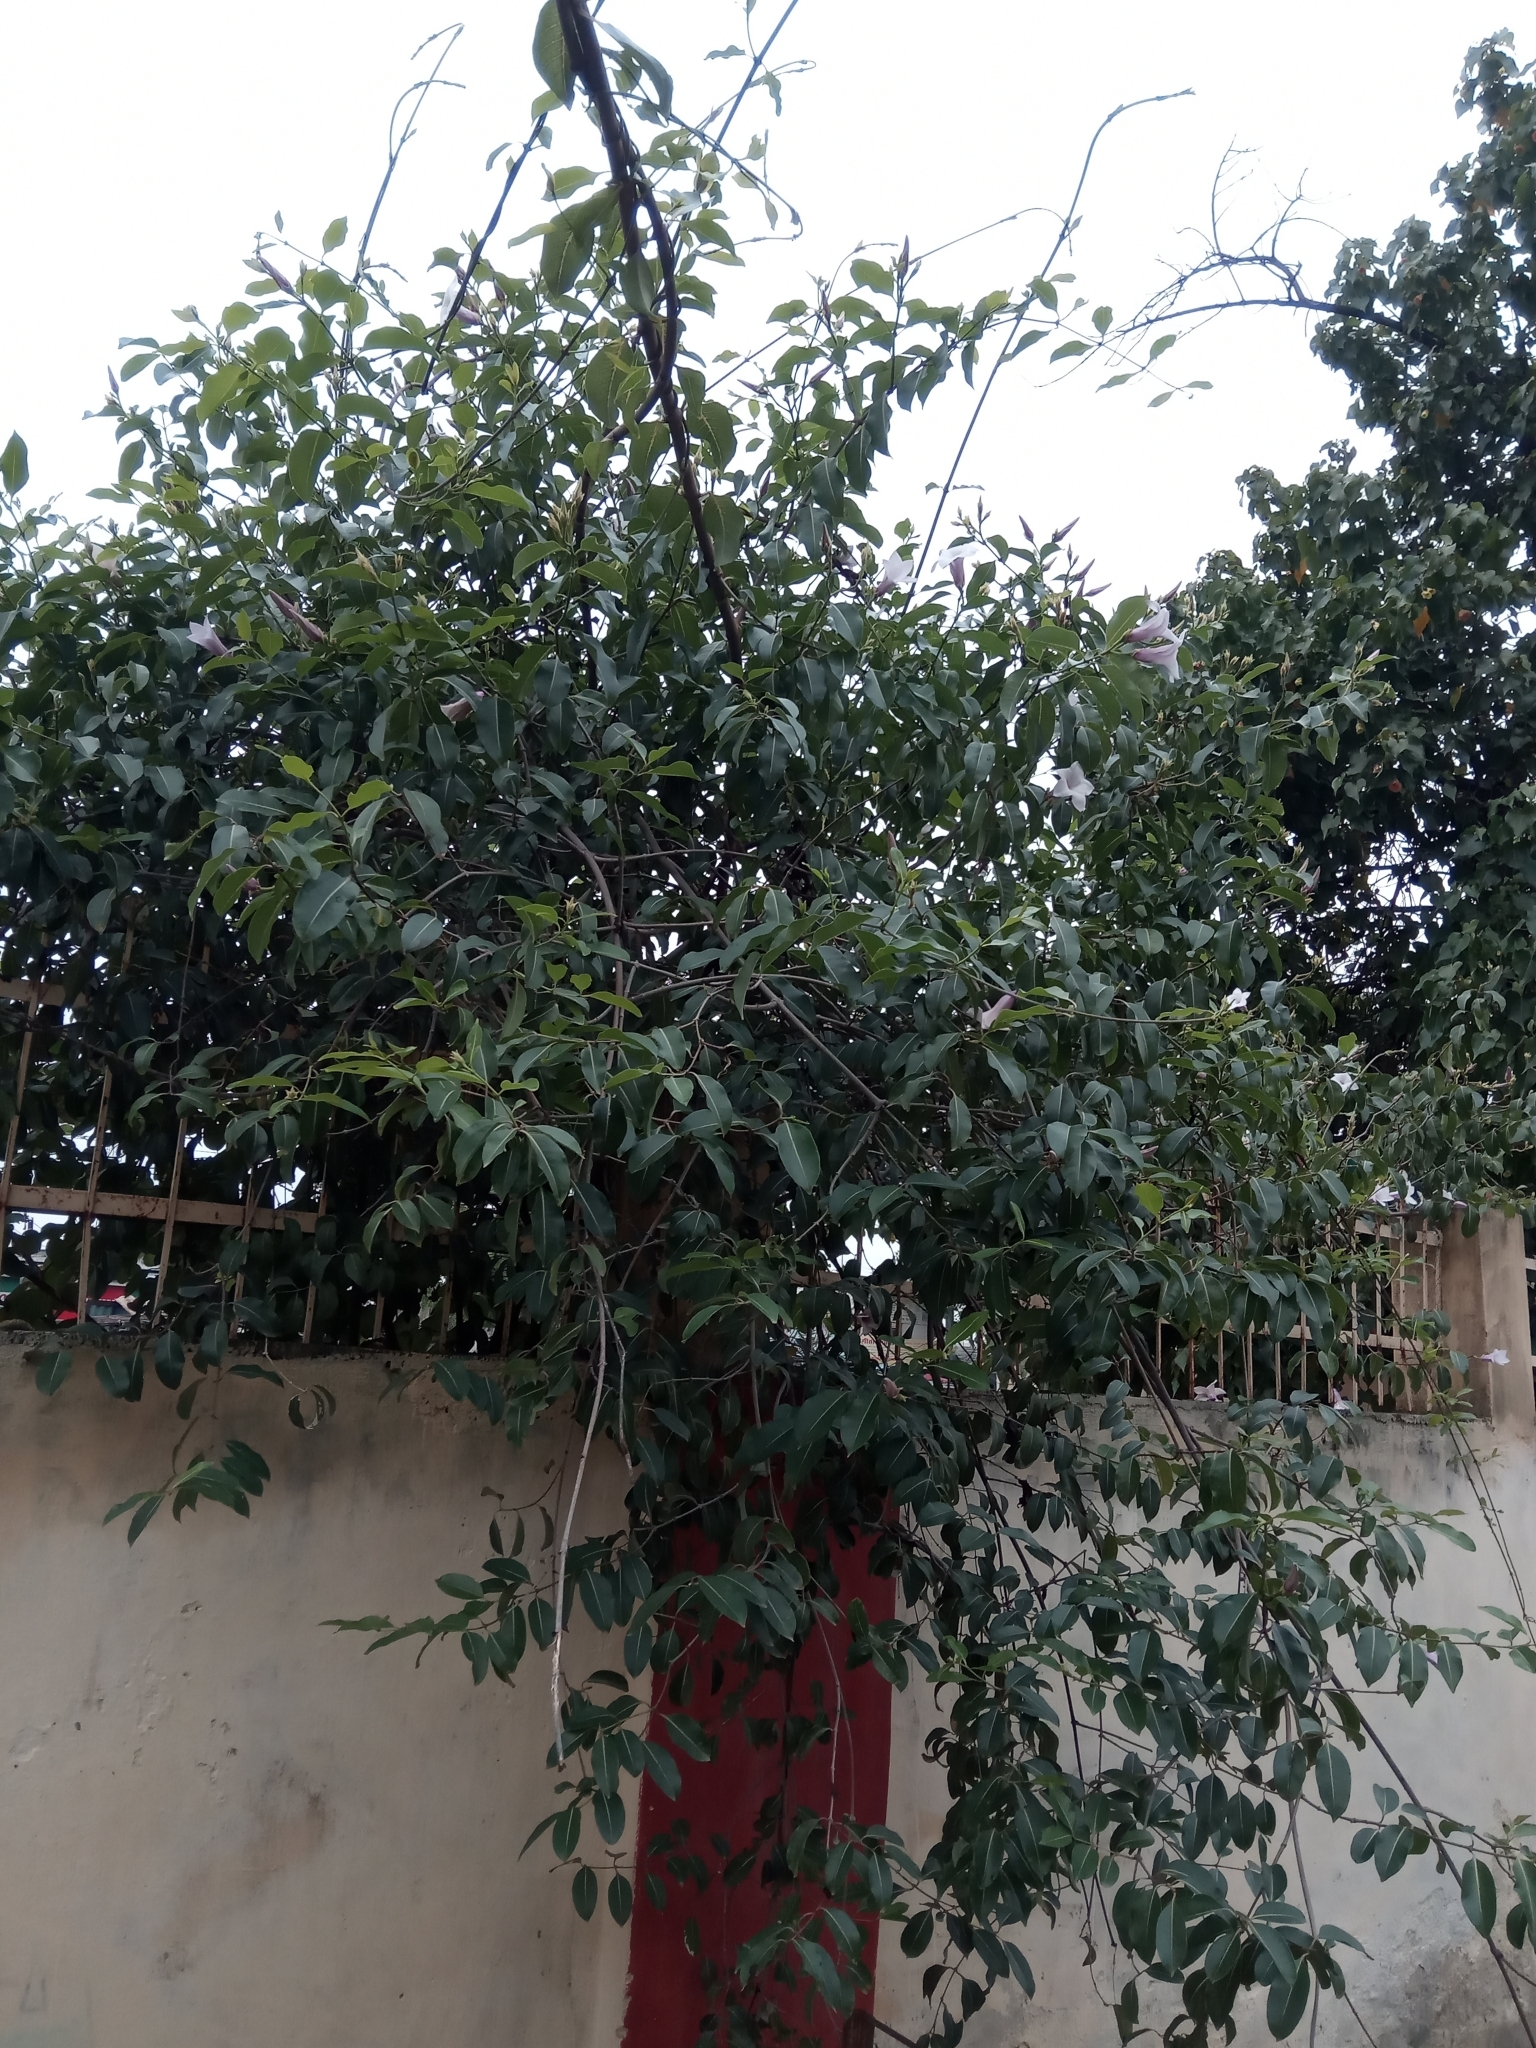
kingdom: Plantae
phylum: Tracheophyta
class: Magnoliopsida
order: Gentianales
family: Apocynaceae
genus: Cryptostegia
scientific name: Cryptostegia grandiflora
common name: Palay rubbervine
